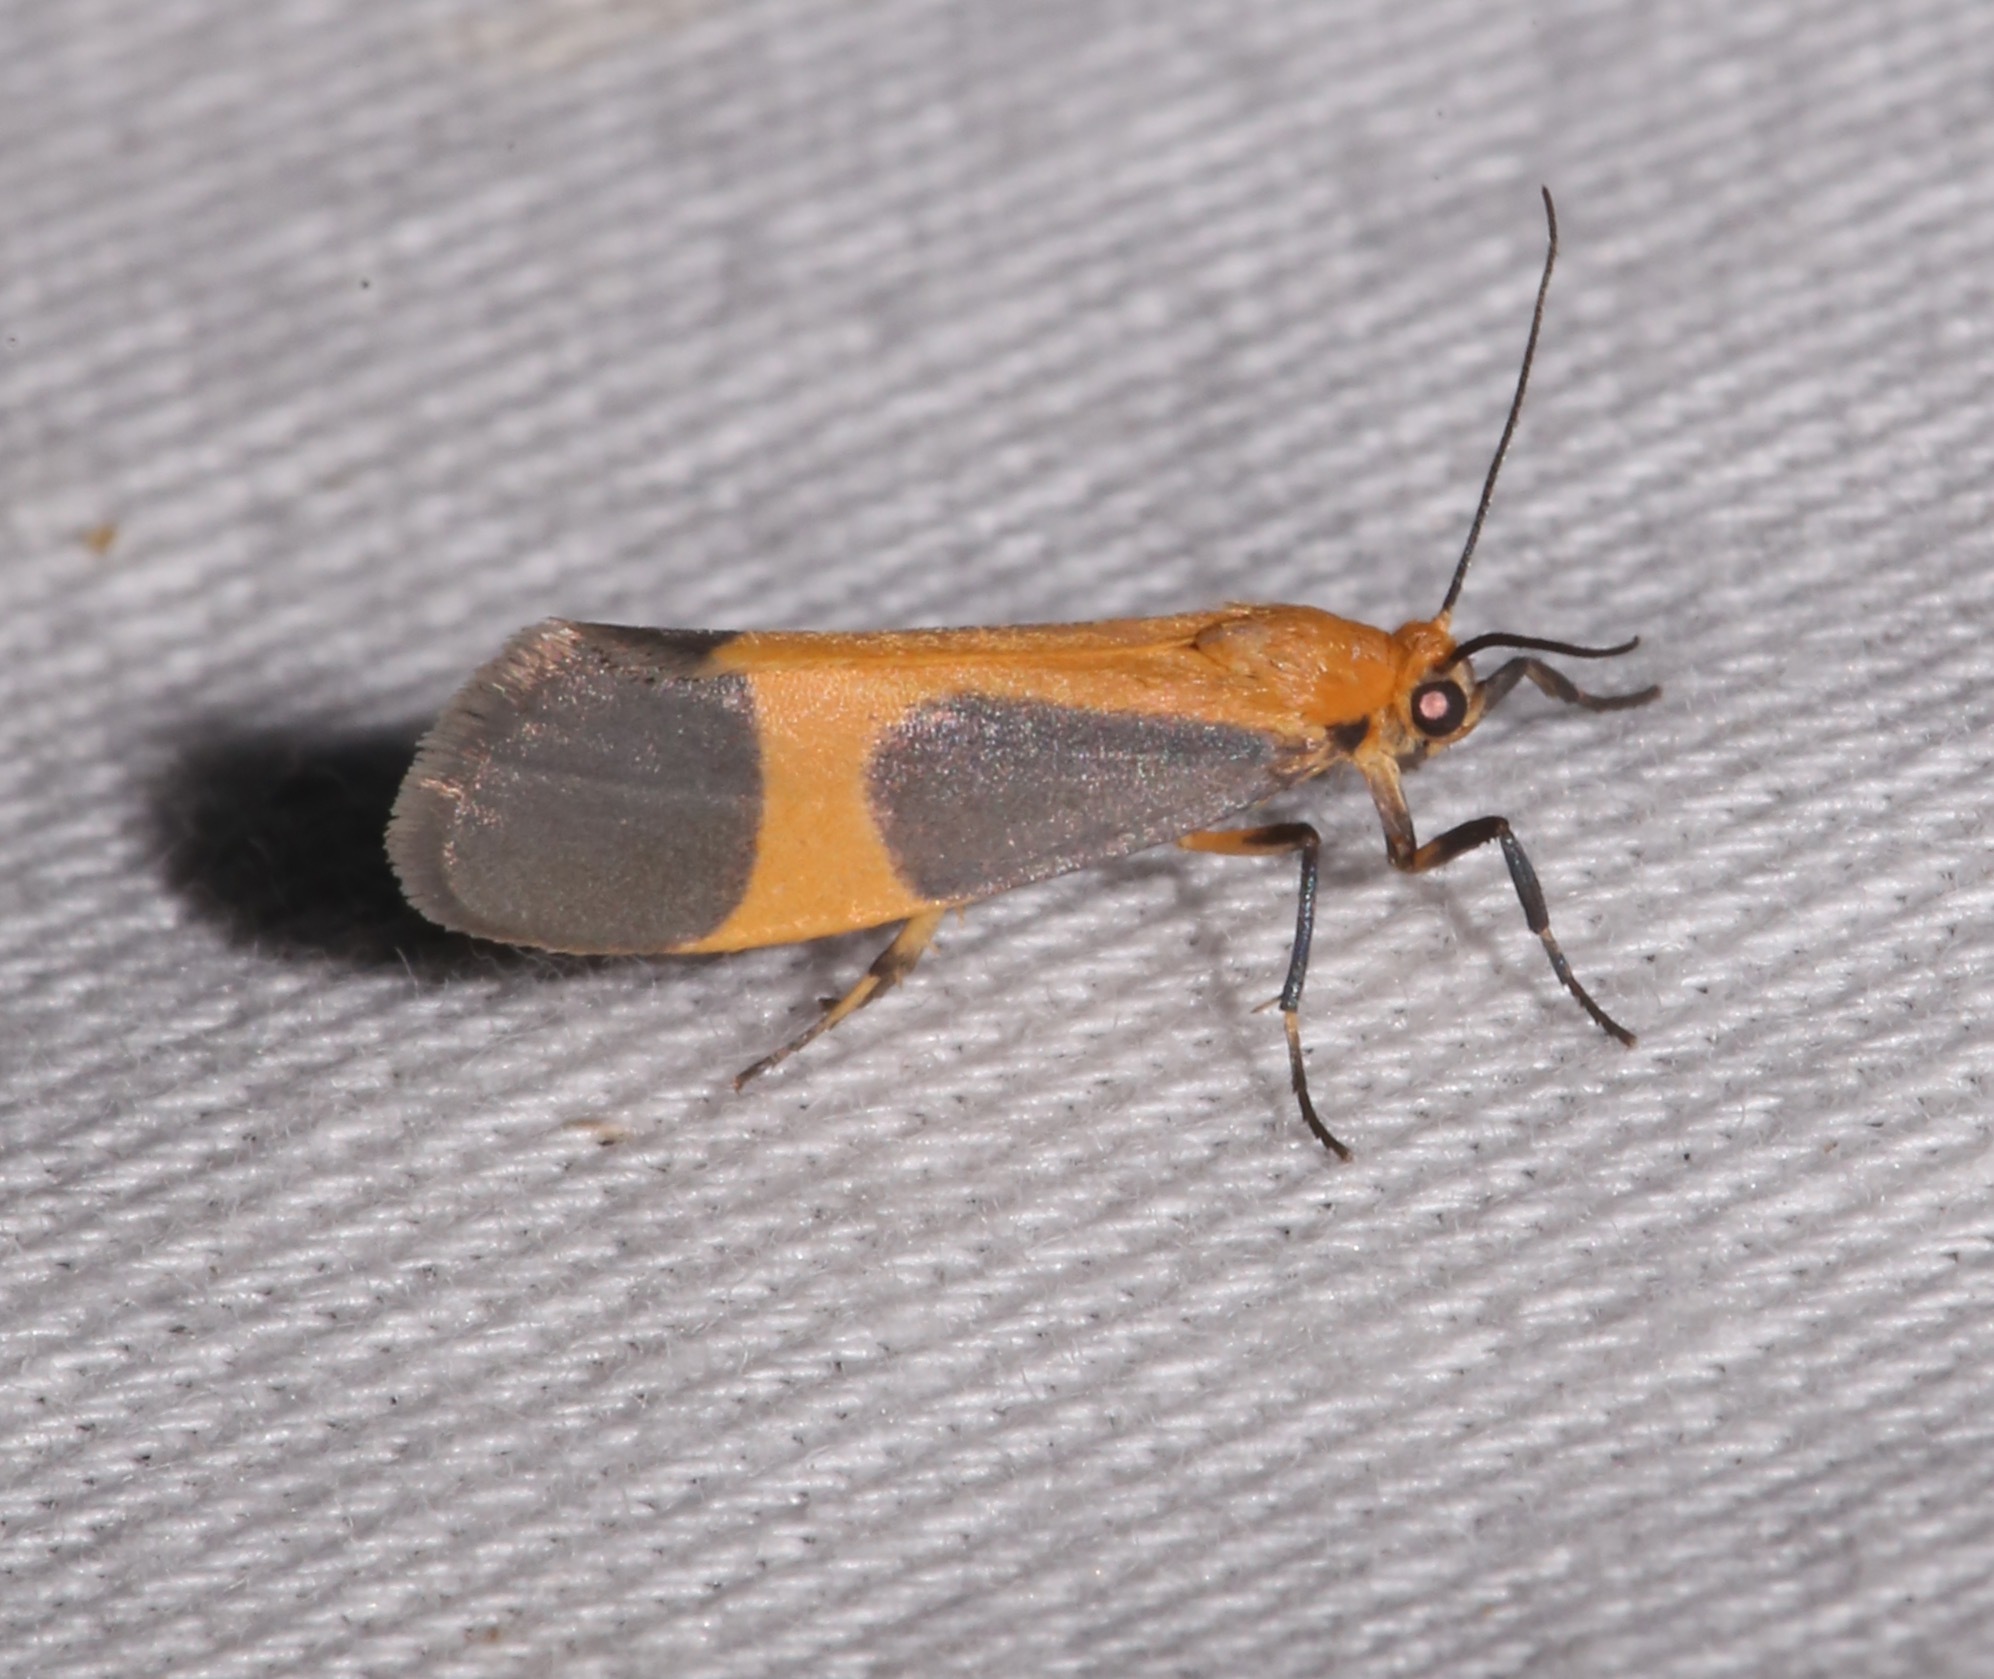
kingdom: Animalia
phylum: Arthropoda
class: Insecta
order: Lepidoptera
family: Erebidae
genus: Cisthene
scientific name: Cisthene picta
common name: Pictured lichen moth
